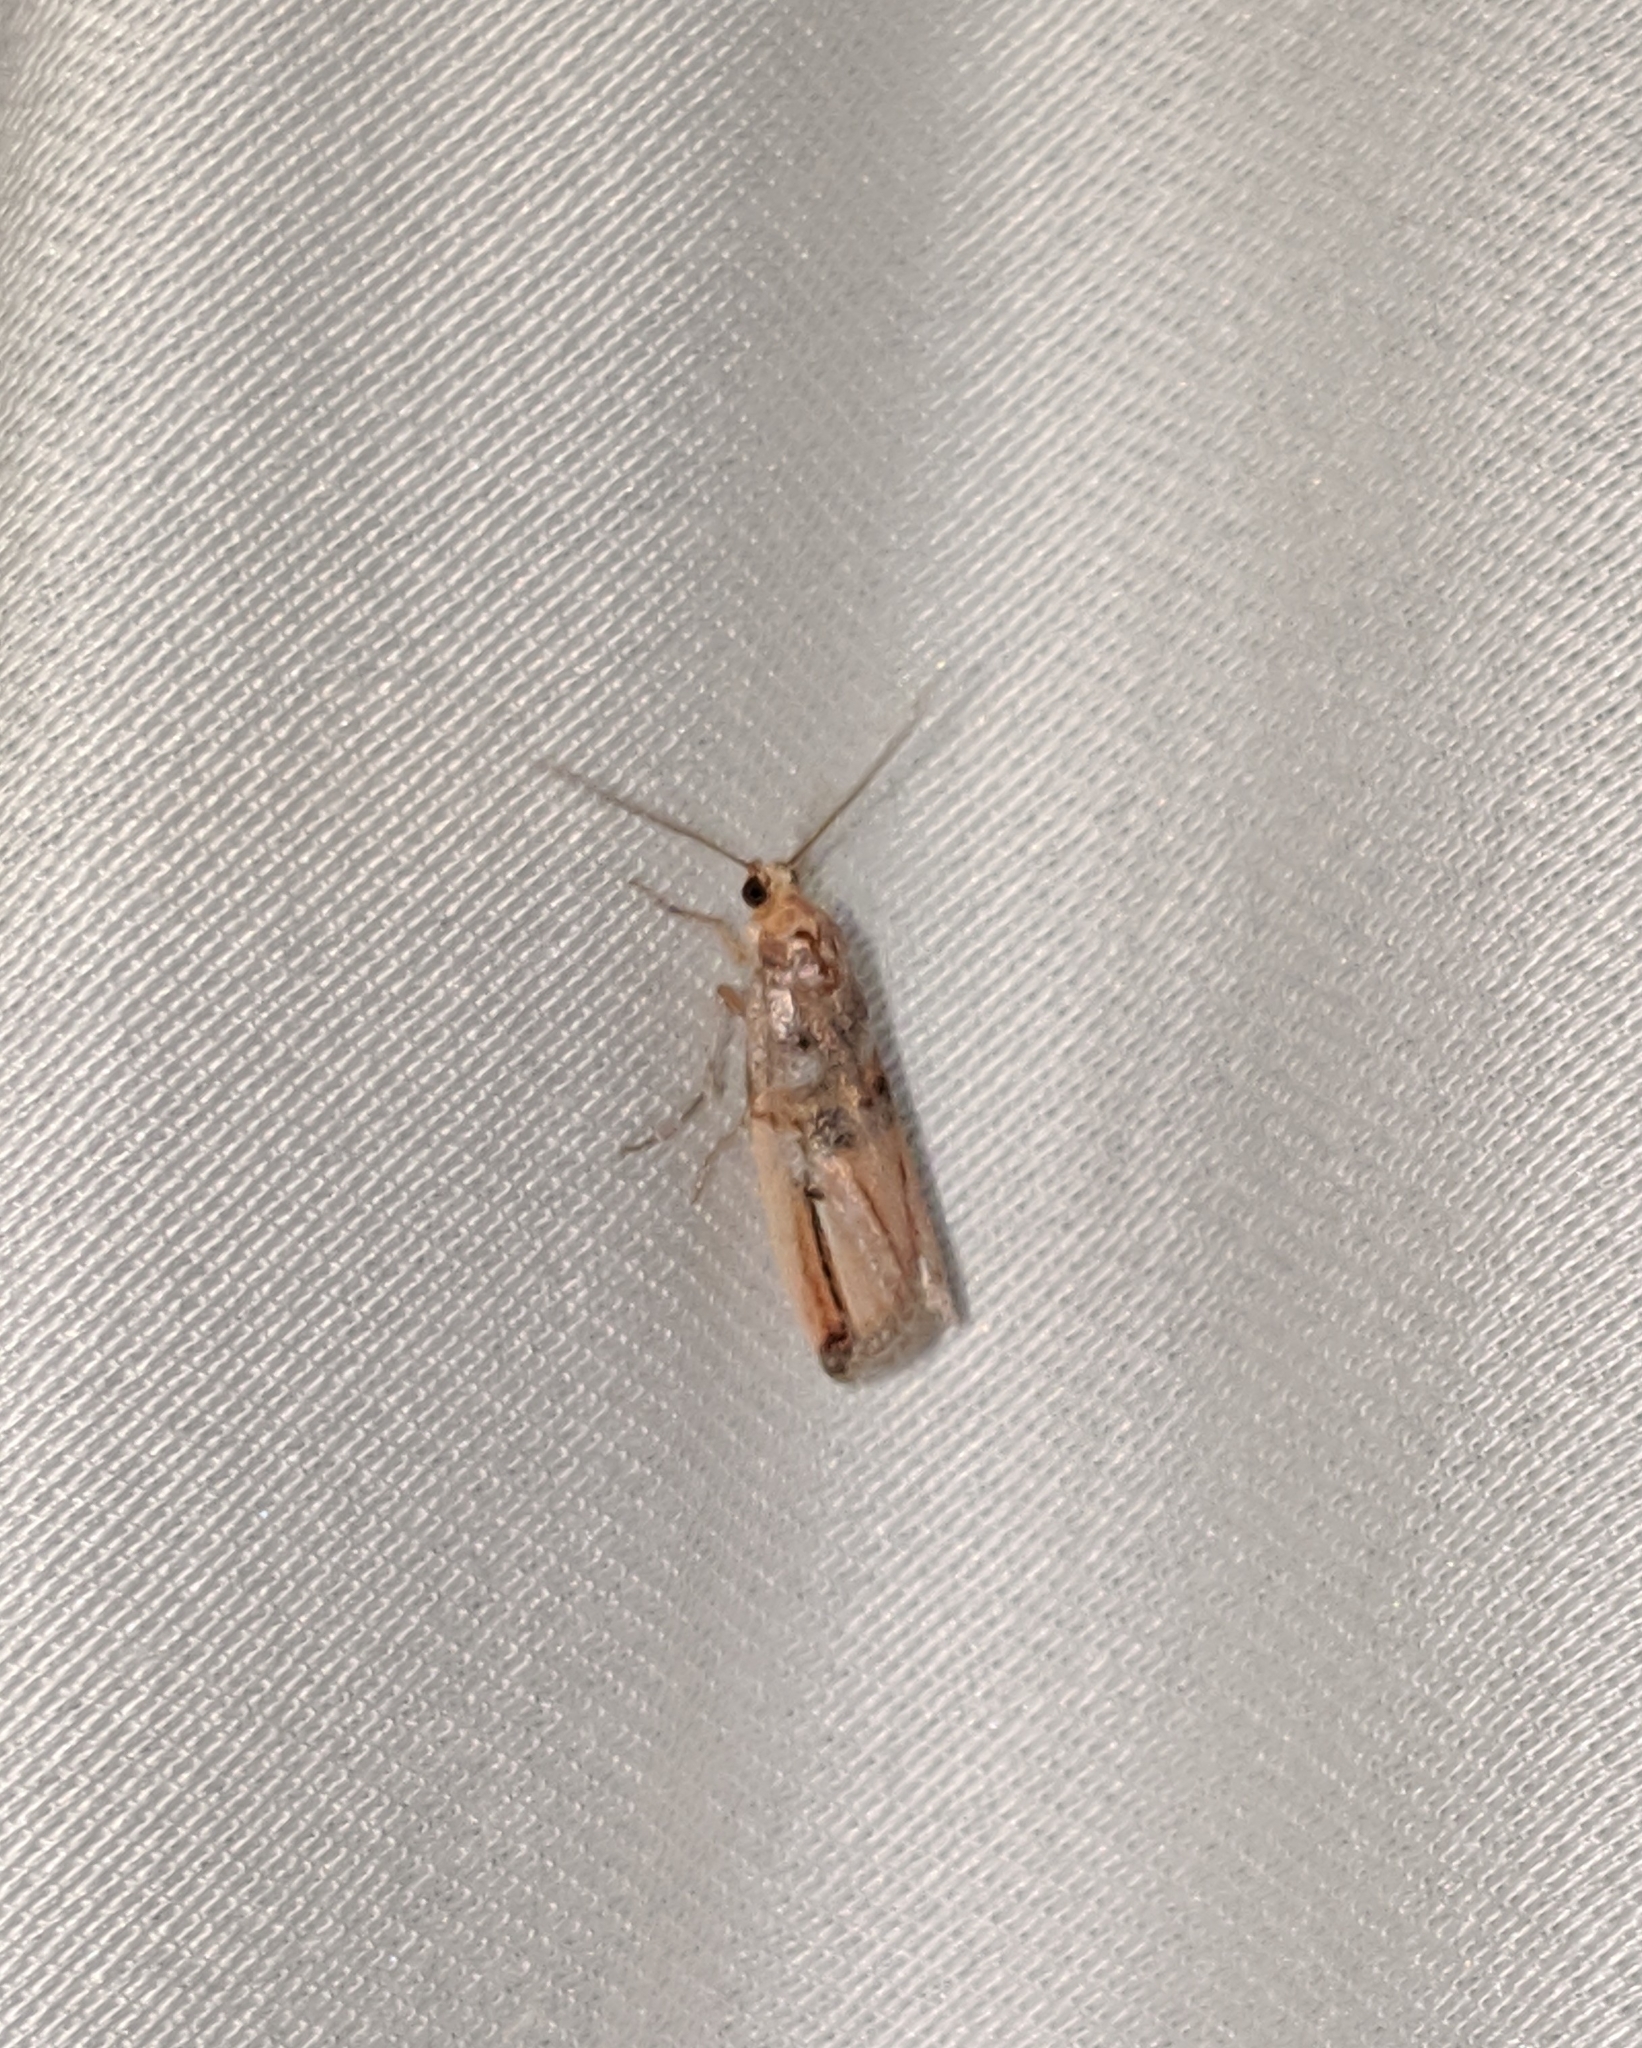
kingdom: Animalia
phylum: Arthropoda
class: Insecta
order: Lepidoptera
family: Pyralidae
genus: Dasypyga
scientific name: Dasypyga alternosquamella
